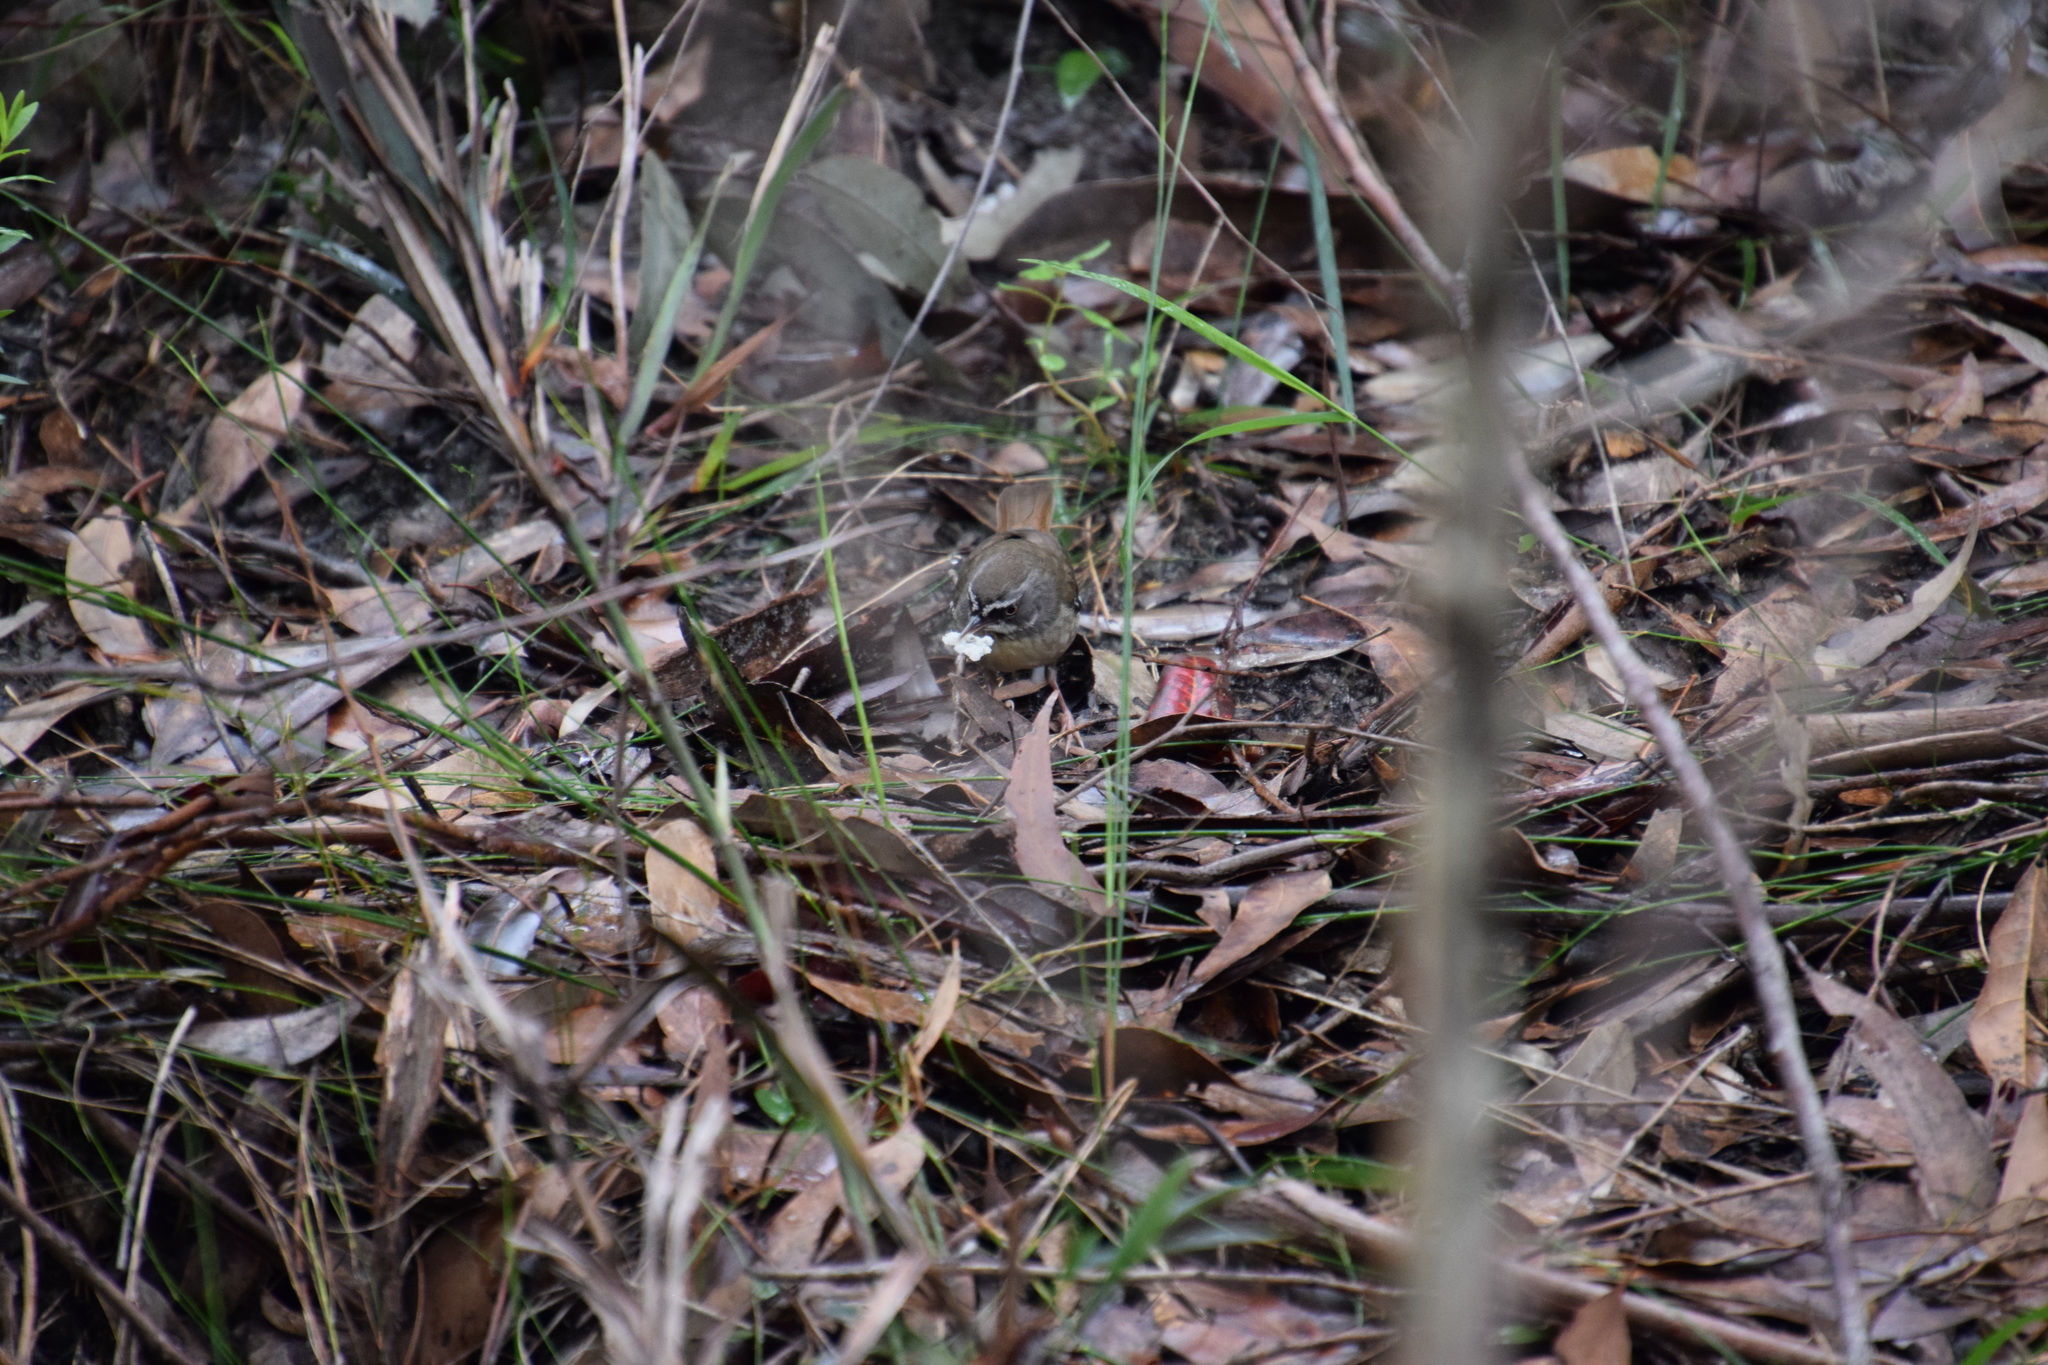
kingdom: Animalia
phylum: Chordata
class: Aves
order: Passeriformes
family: Acanthizidae
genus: Sericornis
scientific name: Sericornis frontalis
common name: White-browed scrubwren
